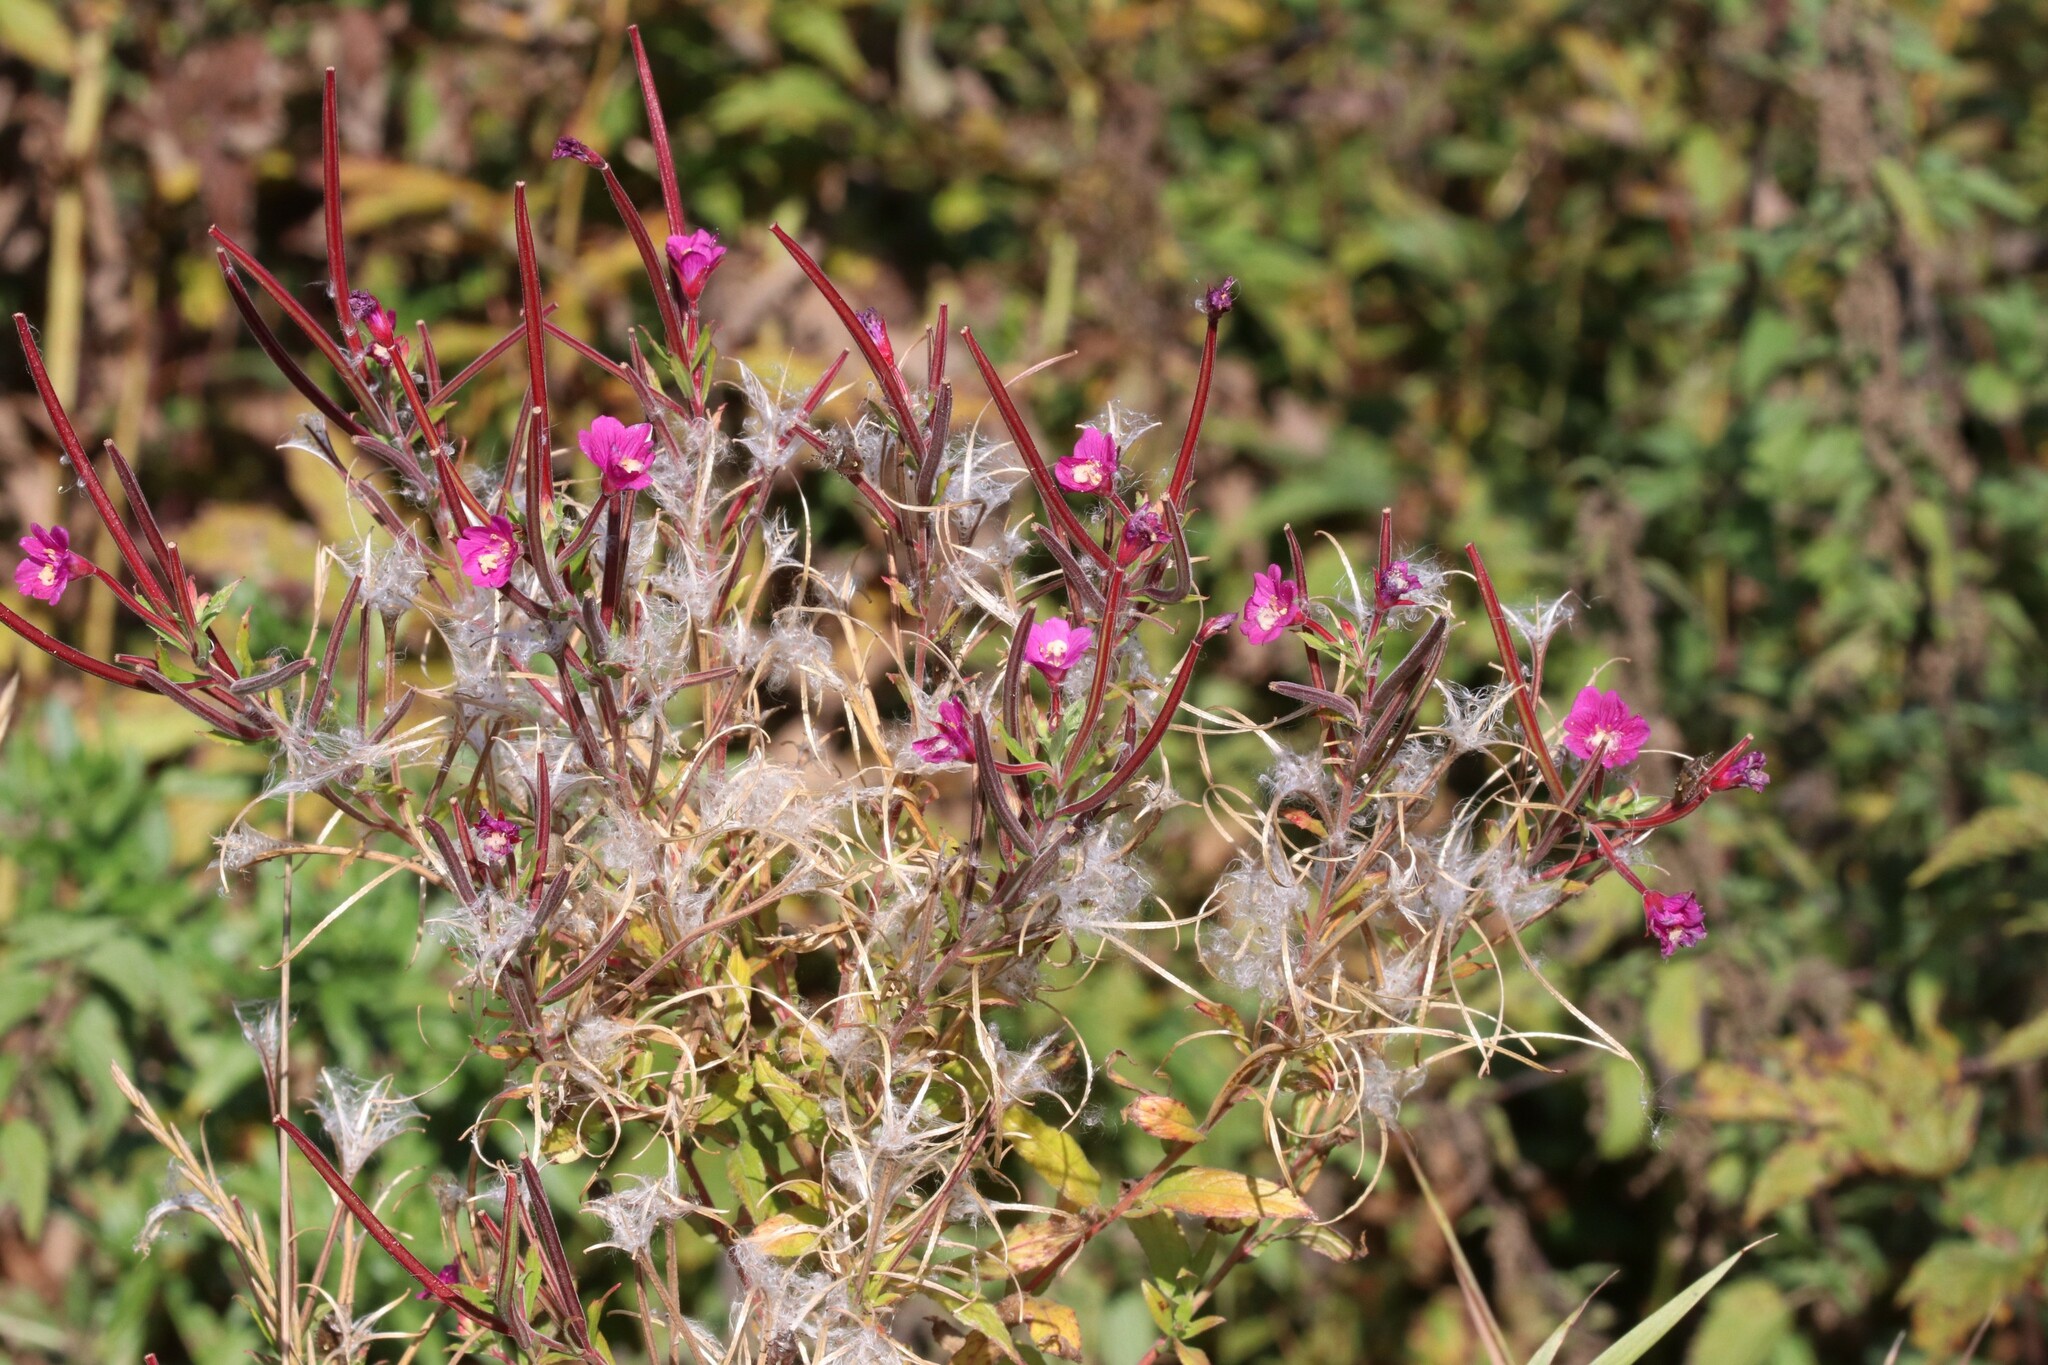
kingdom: Plantae
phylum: Tracheophyta
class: Magnoliopsida
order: Myrtales
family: Onagraceae
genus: Epilobium
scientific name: Epilobium hirsutum
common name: Great willowherb
